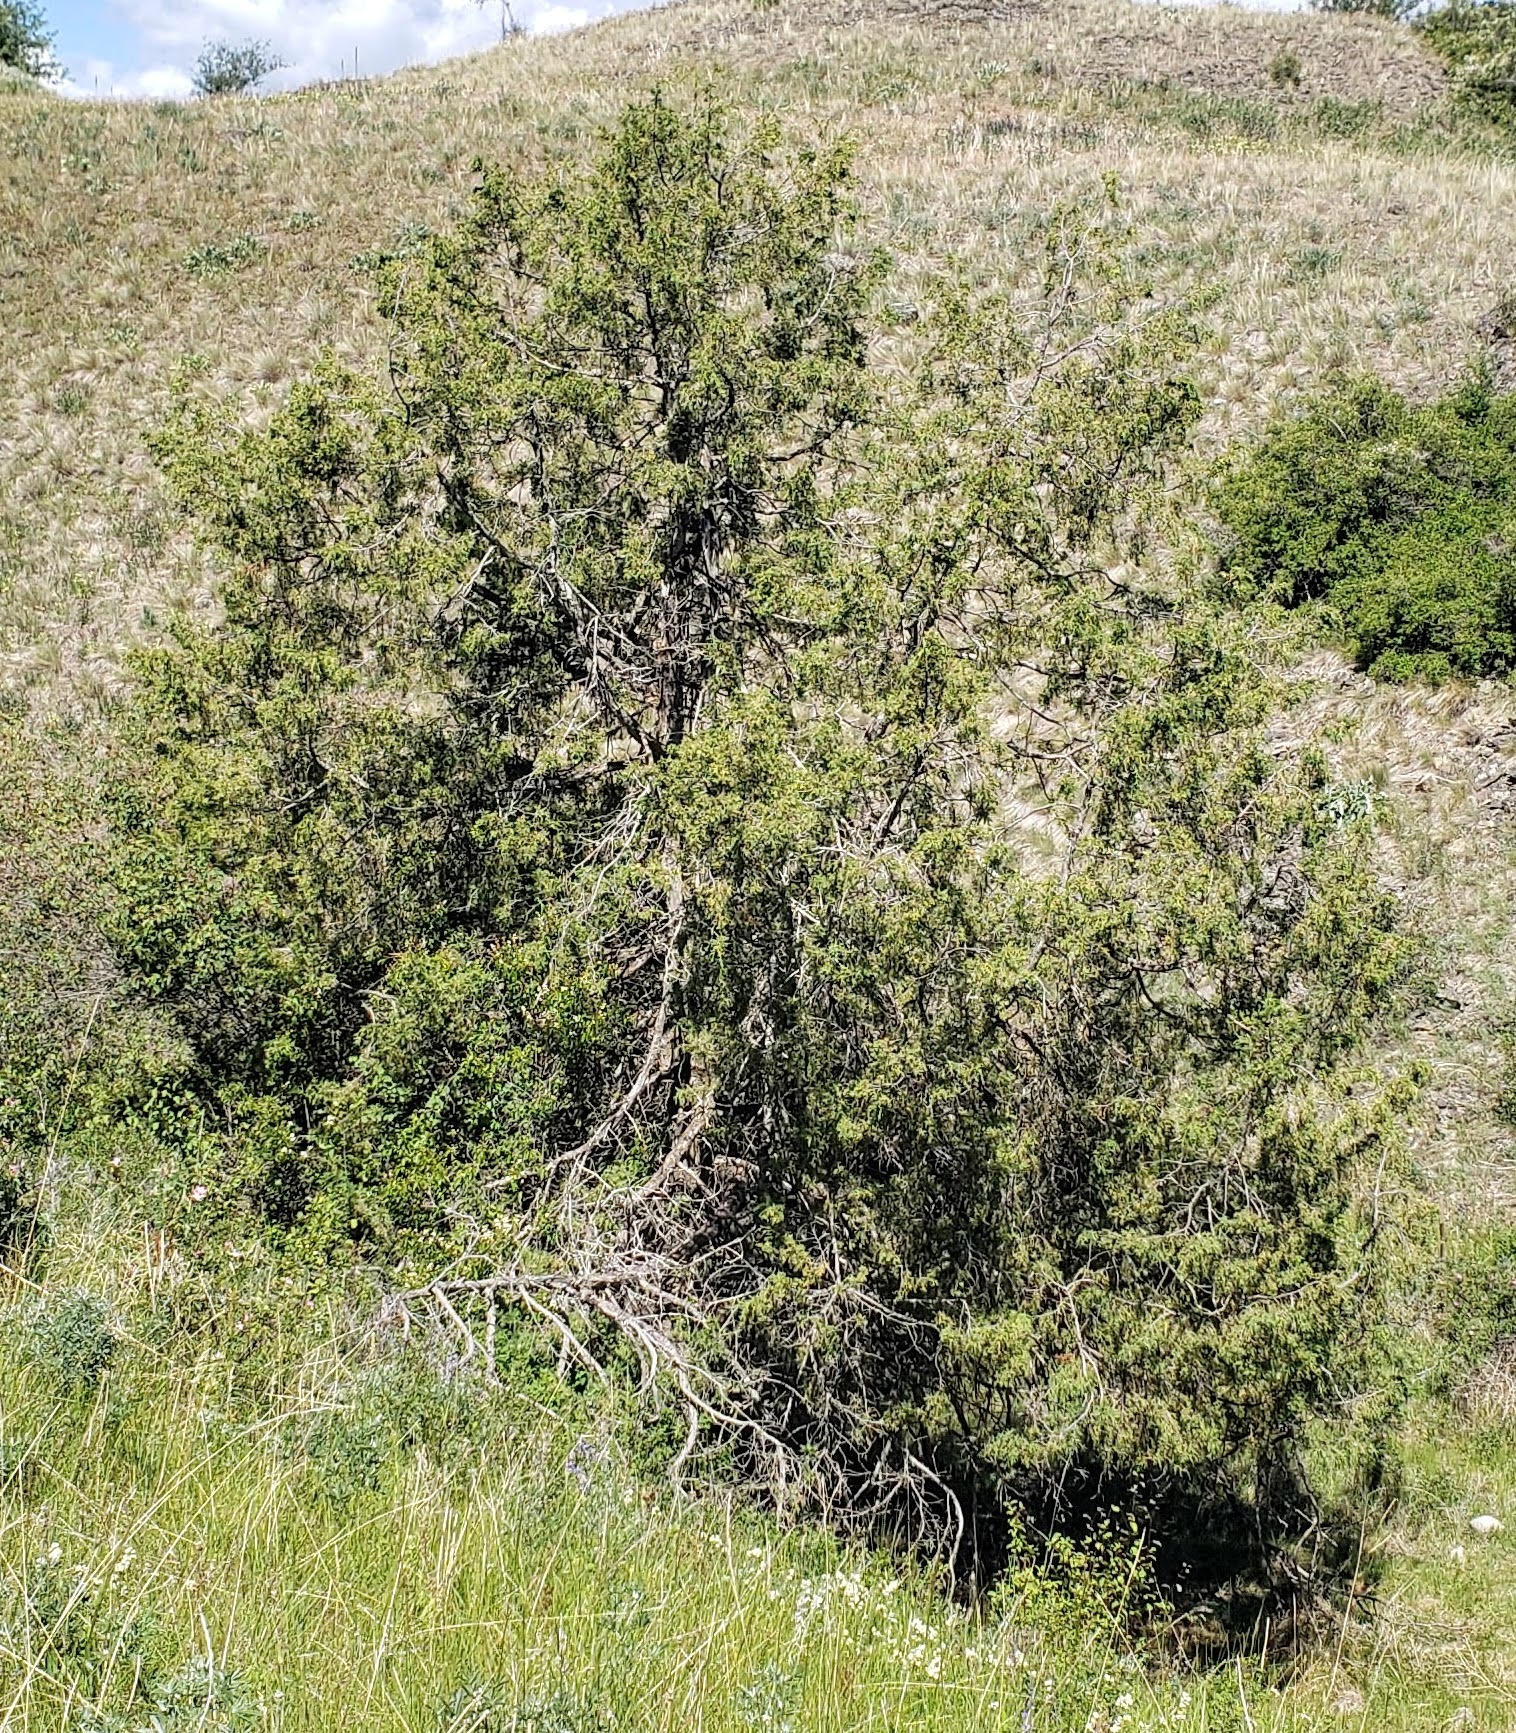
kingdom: Plantae
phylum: Tracheophyta
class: Pinopsida
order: Pinales
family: Cupressaceae
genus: Juniperus
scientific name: Juniperus scopulorum
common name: Rocky mountain juniper
